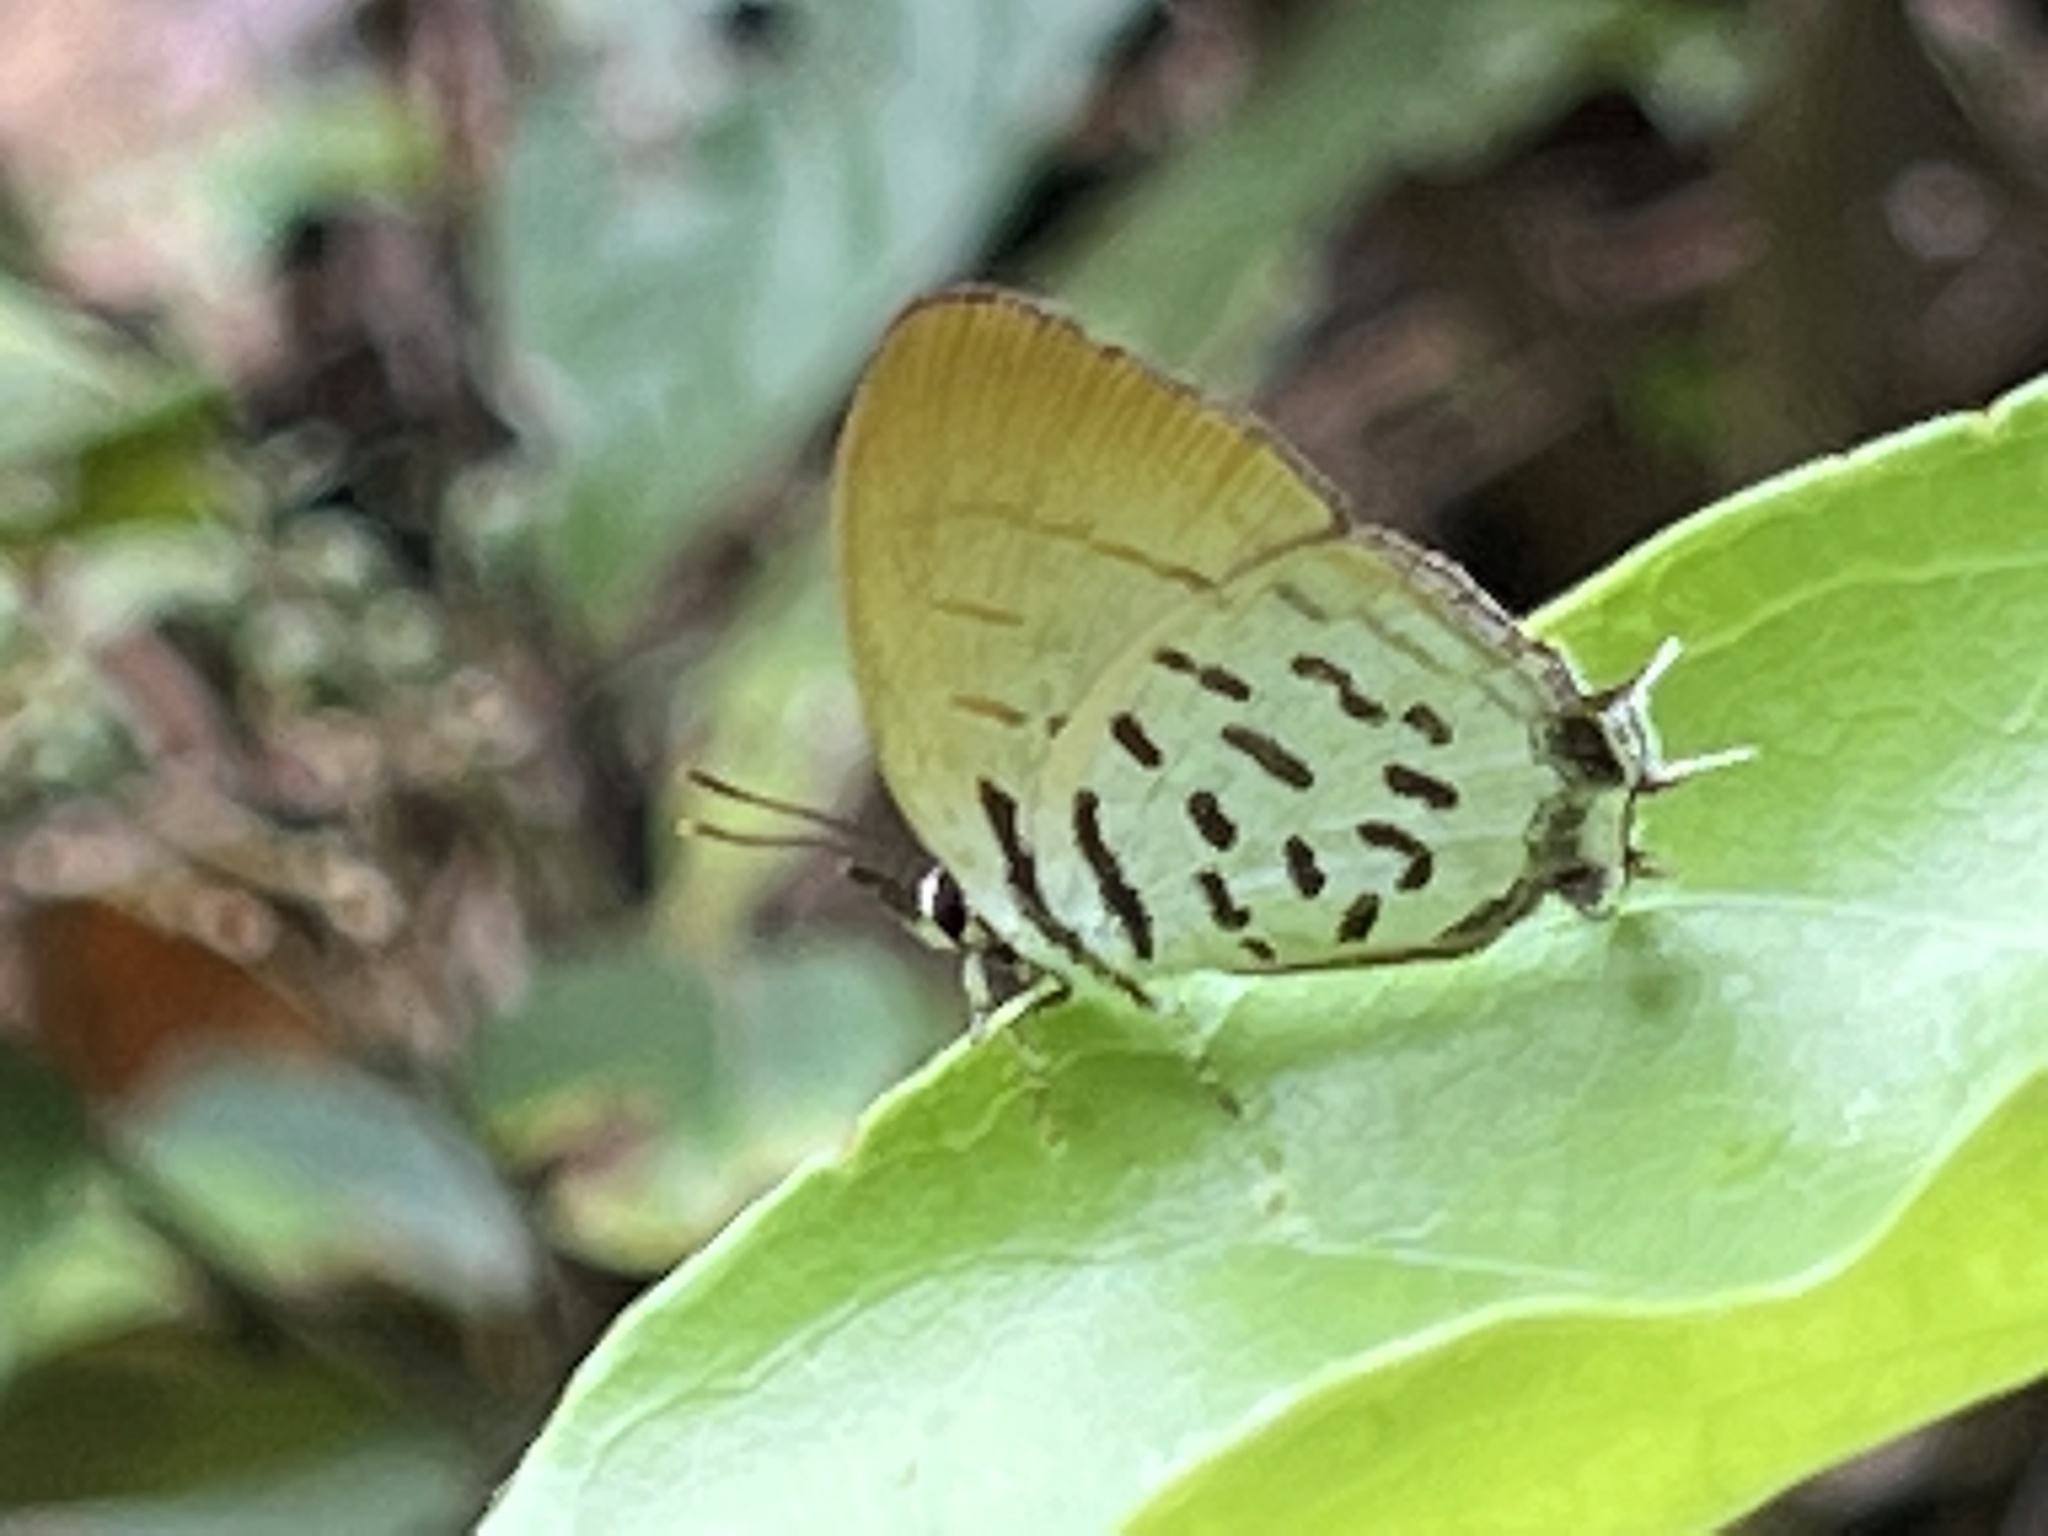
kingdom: Animalia
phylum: Arthropoda
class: Insecta
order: Lepidoptera
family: Lycaenidae
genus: Drupadia
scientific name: Drupadia ravindra
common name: Common posy
